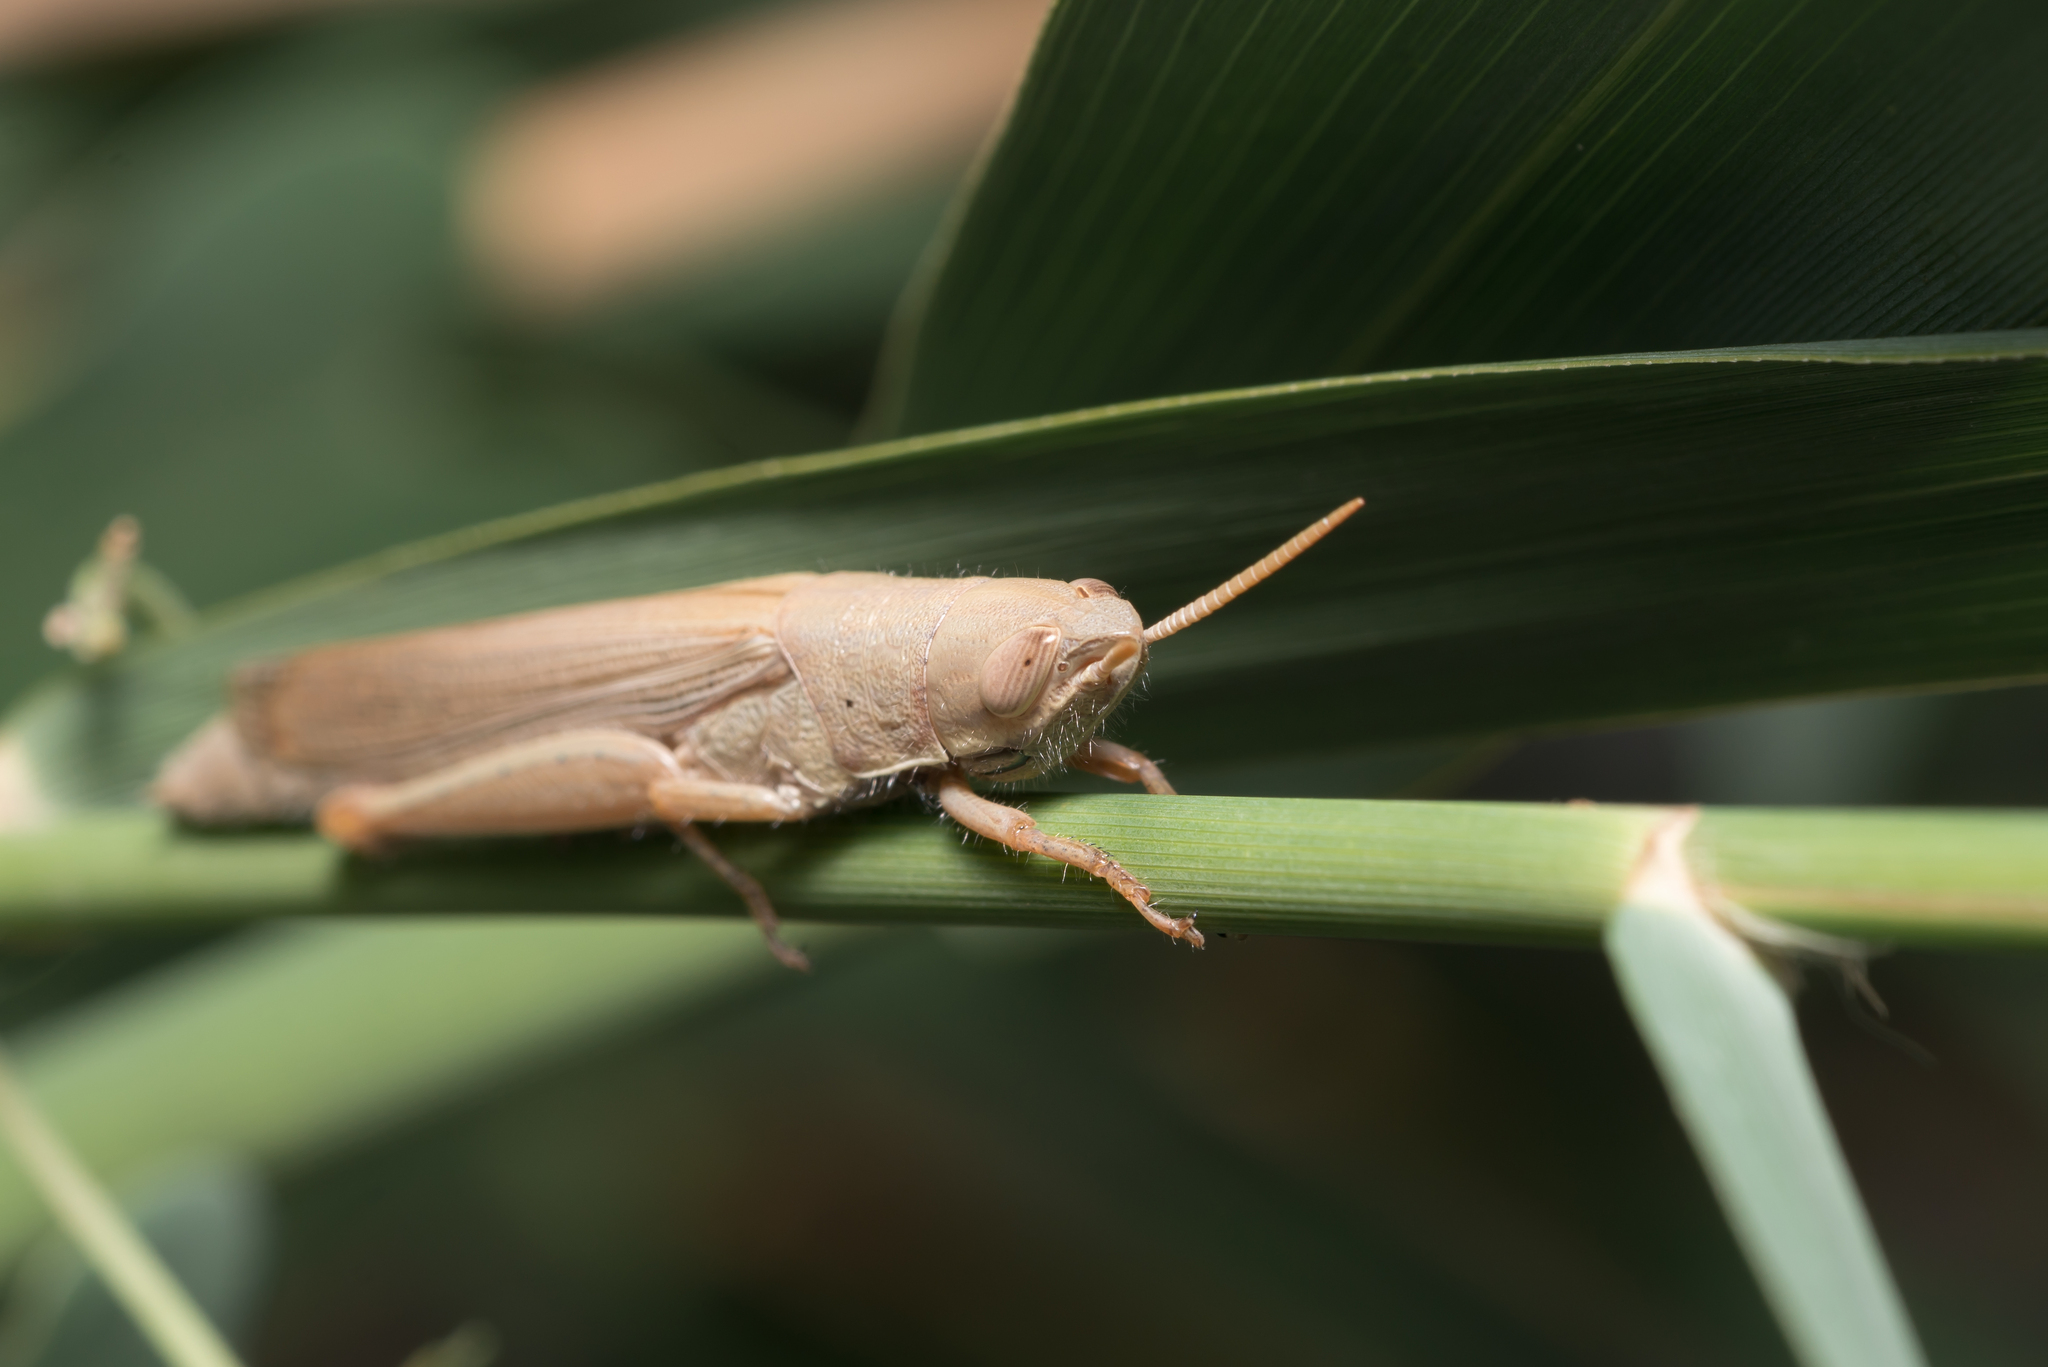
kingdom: Animalia
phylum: Arthropoda
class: Insecta
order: Orthoptera
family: Acrididae
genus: Tropidopola
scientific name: Tropidopola graeca
